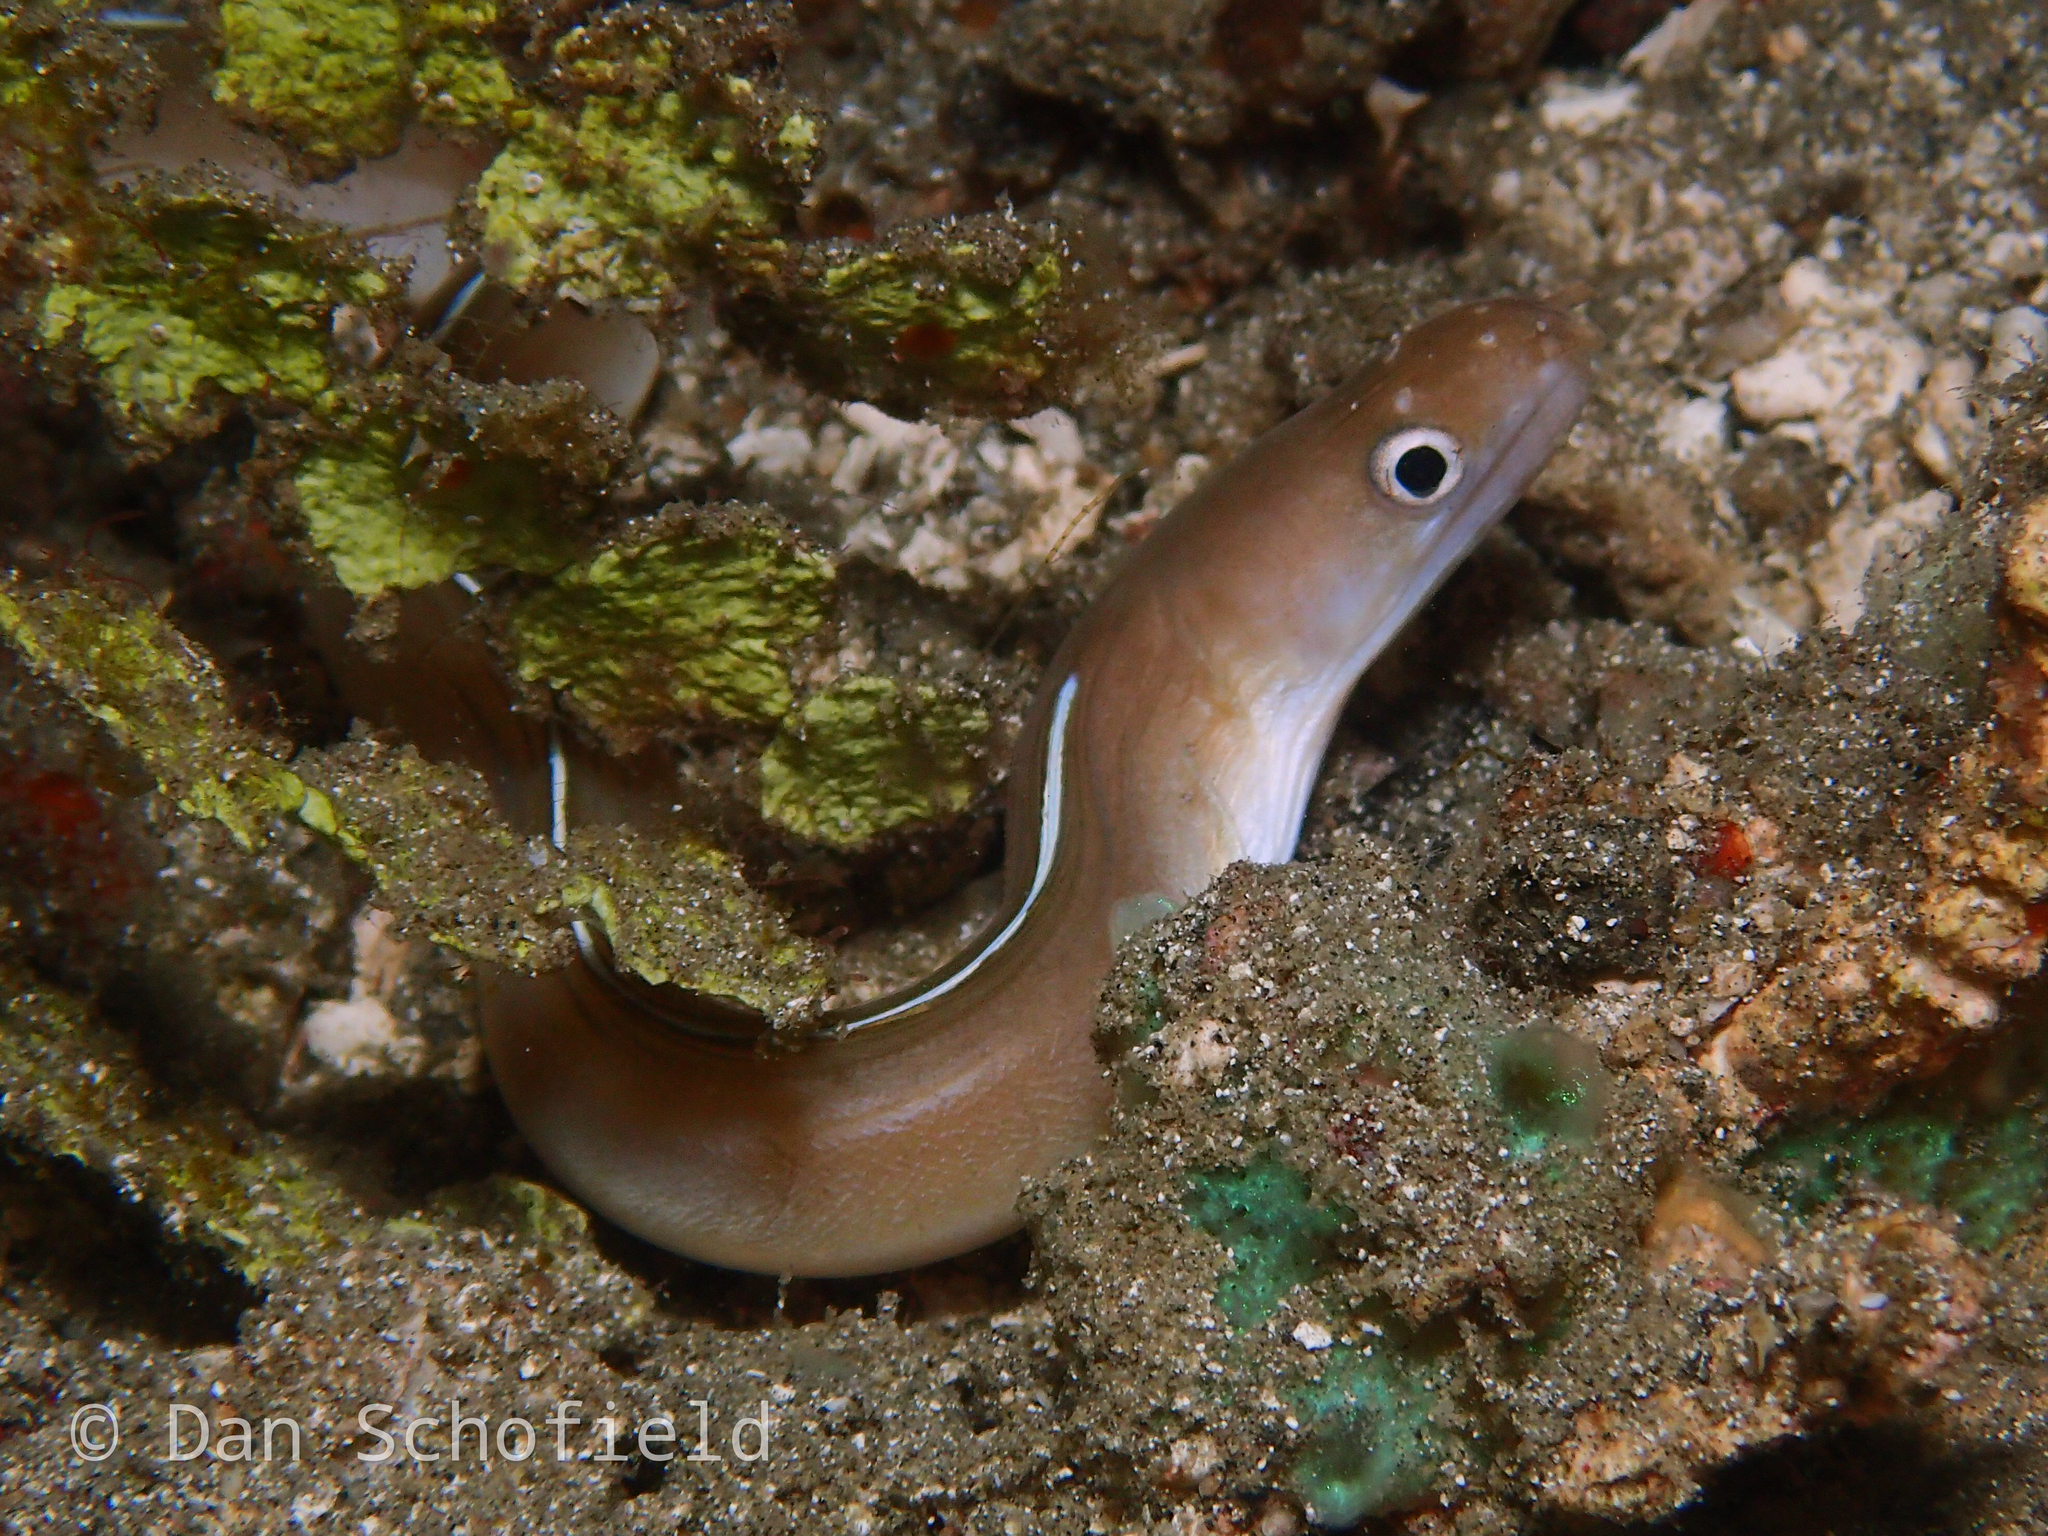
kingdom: Animalia
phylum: Chordata
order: Anguilliformes
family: Muraenidae
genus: Gymnothorax
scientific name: Gymnothorax albimarginatus
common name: Whitemargin moray
